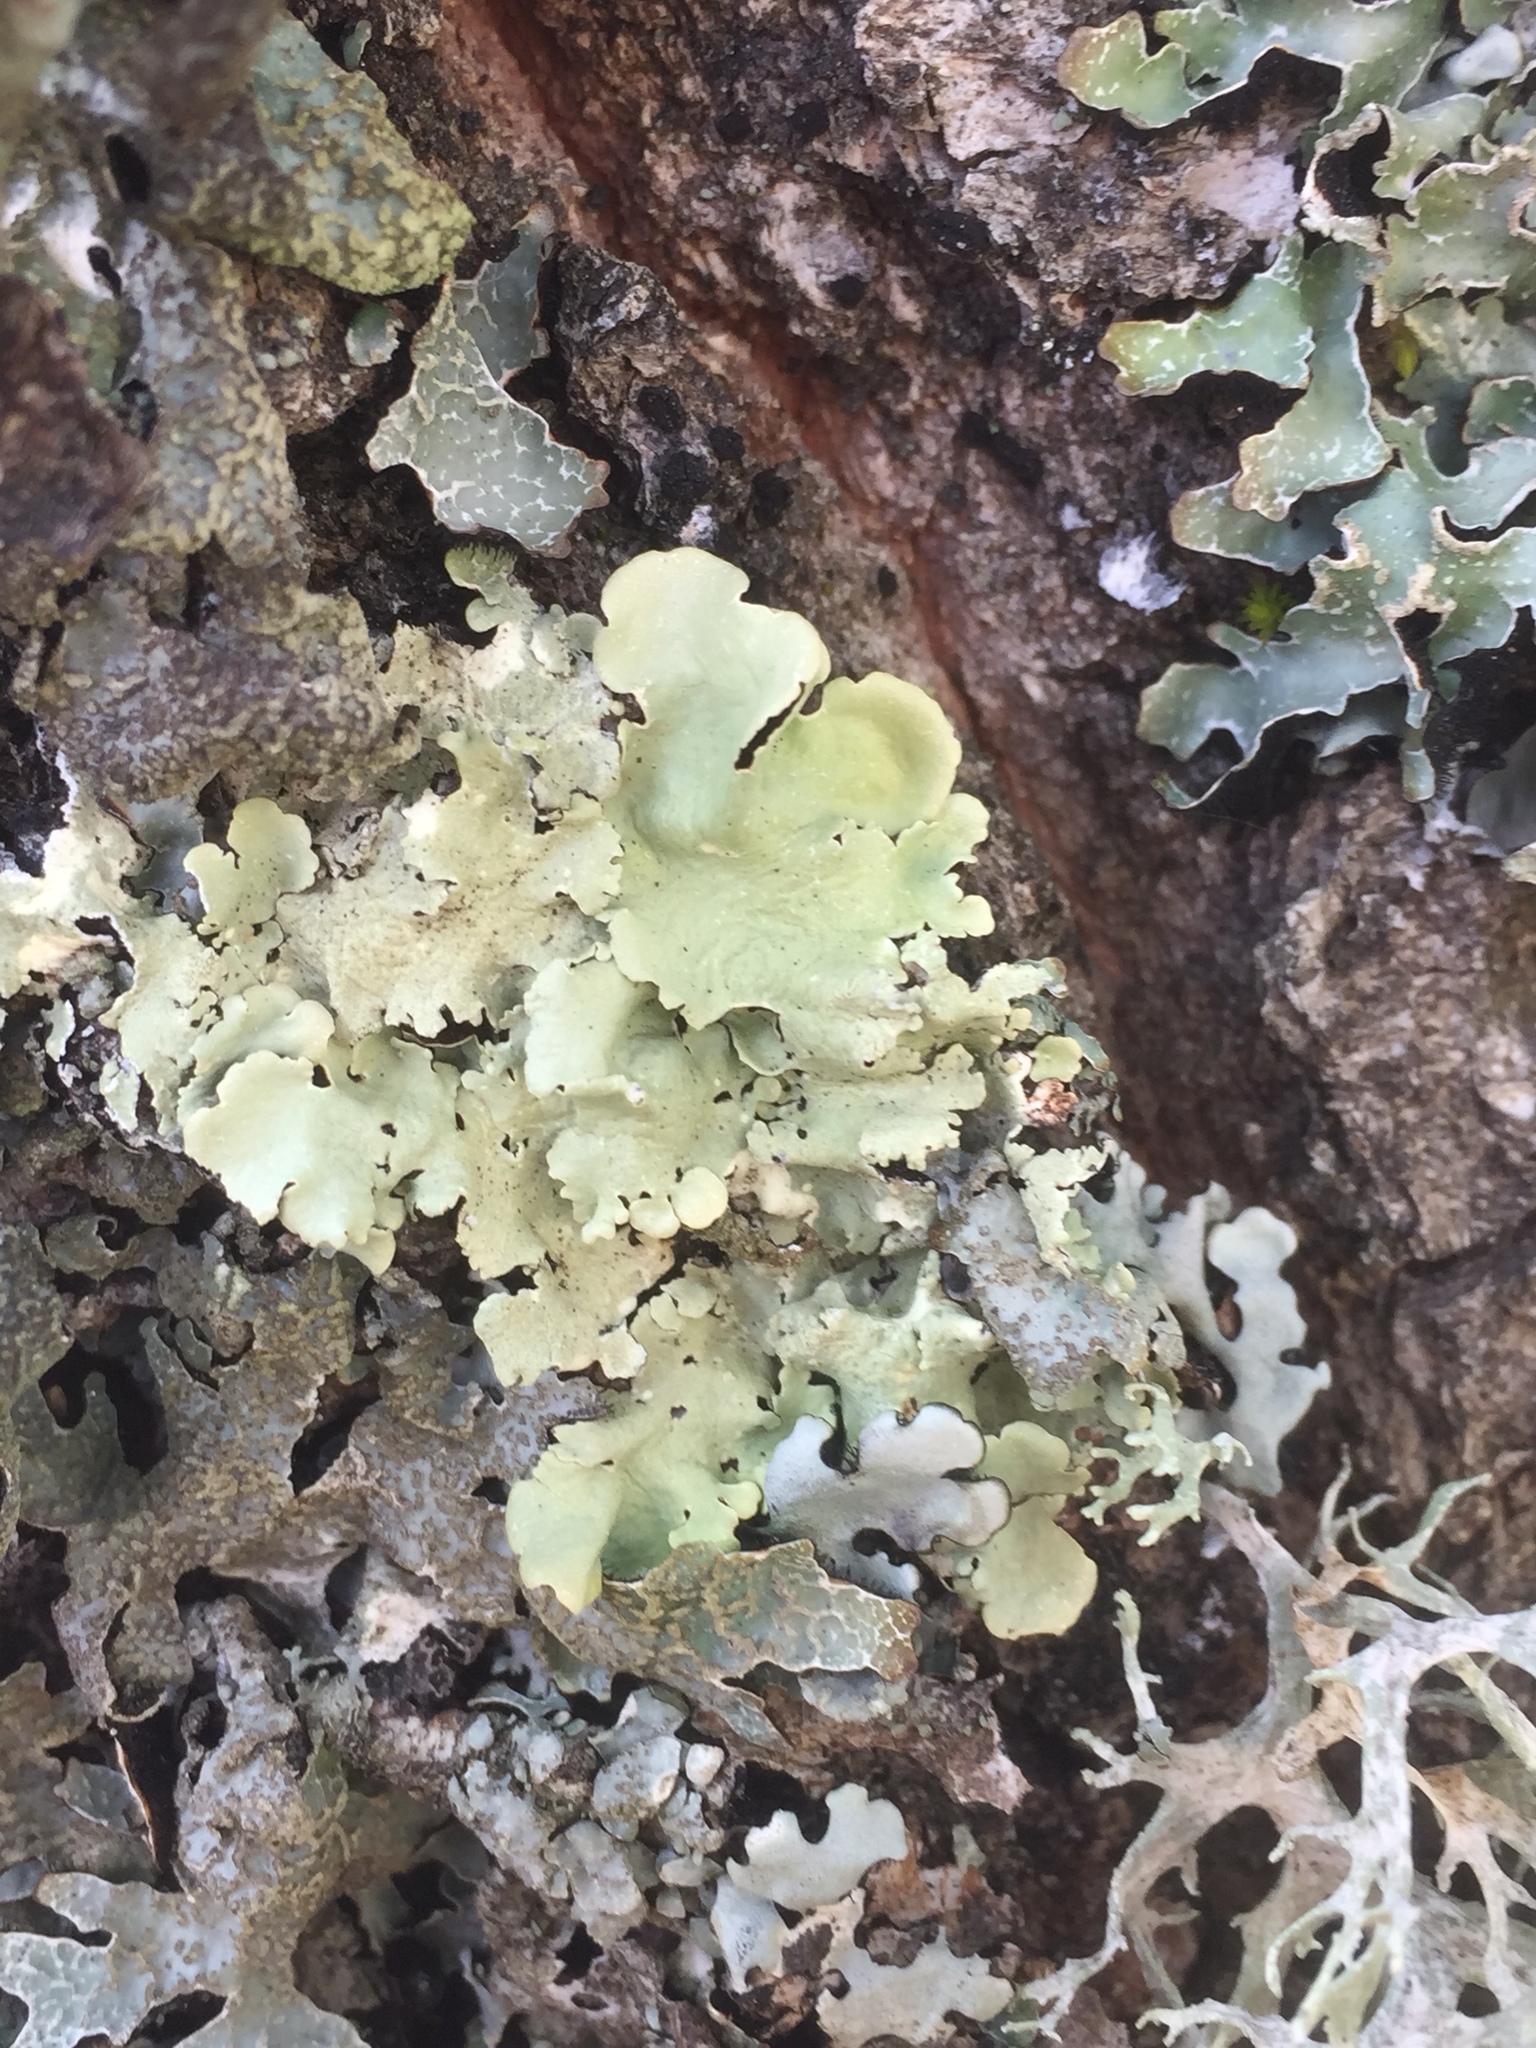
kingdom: Fungi
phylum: Ascomycota
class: Lecanoromycetes
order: Lecanorales
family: Parmeliaceae
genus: Flavoparmelia
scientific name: Flavoparmelia caperata
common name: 40-mile per hour lichen
